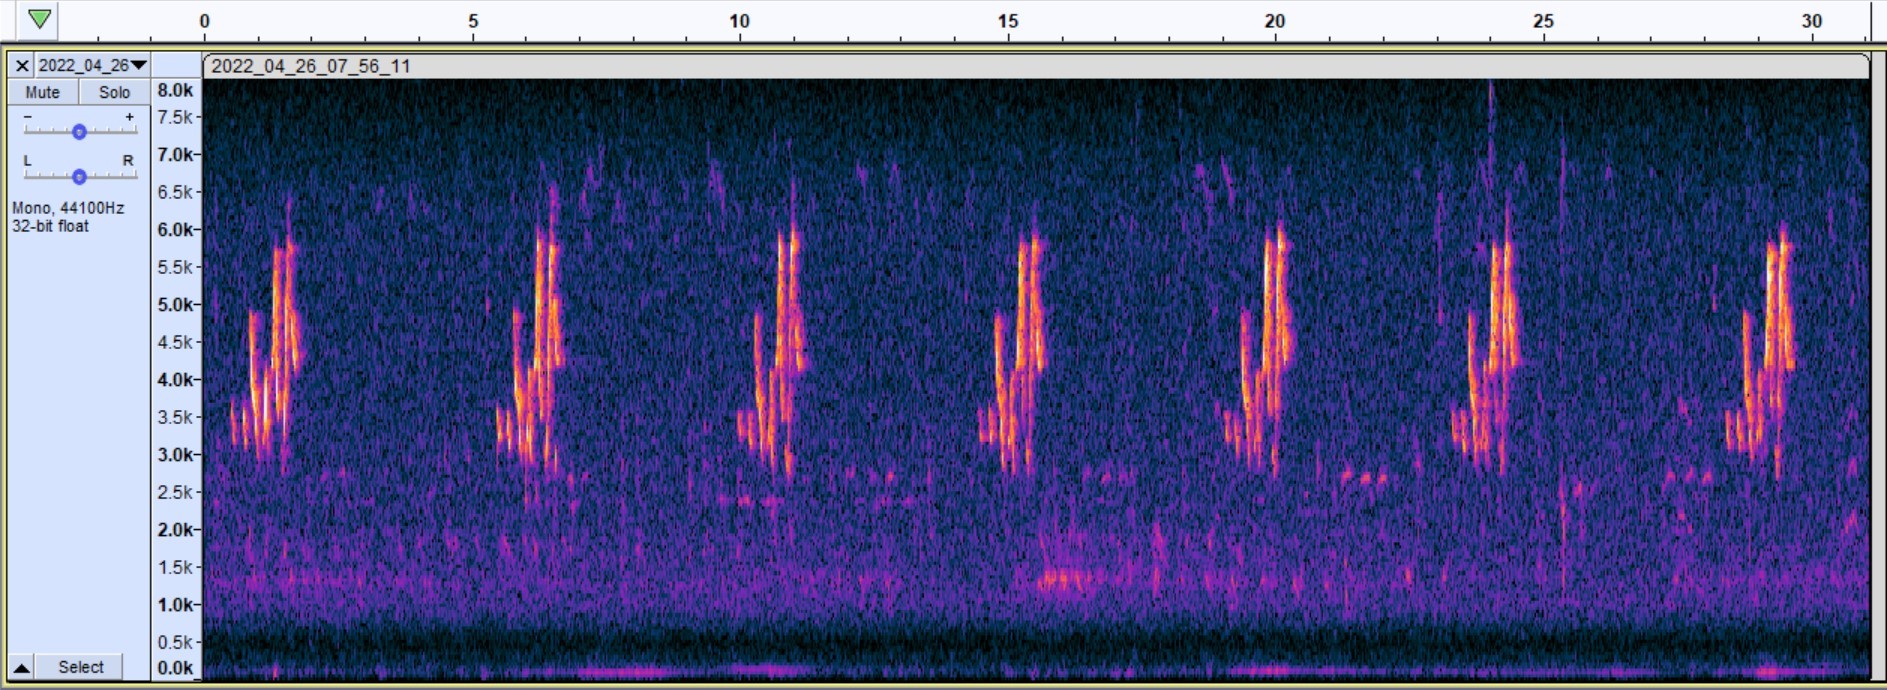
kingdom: Animalia
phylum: Chordata
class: Aves
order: Passeriformes
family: Parulidae
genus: Setophaga
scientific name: Setophaga citrina
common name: Hooded warbler
